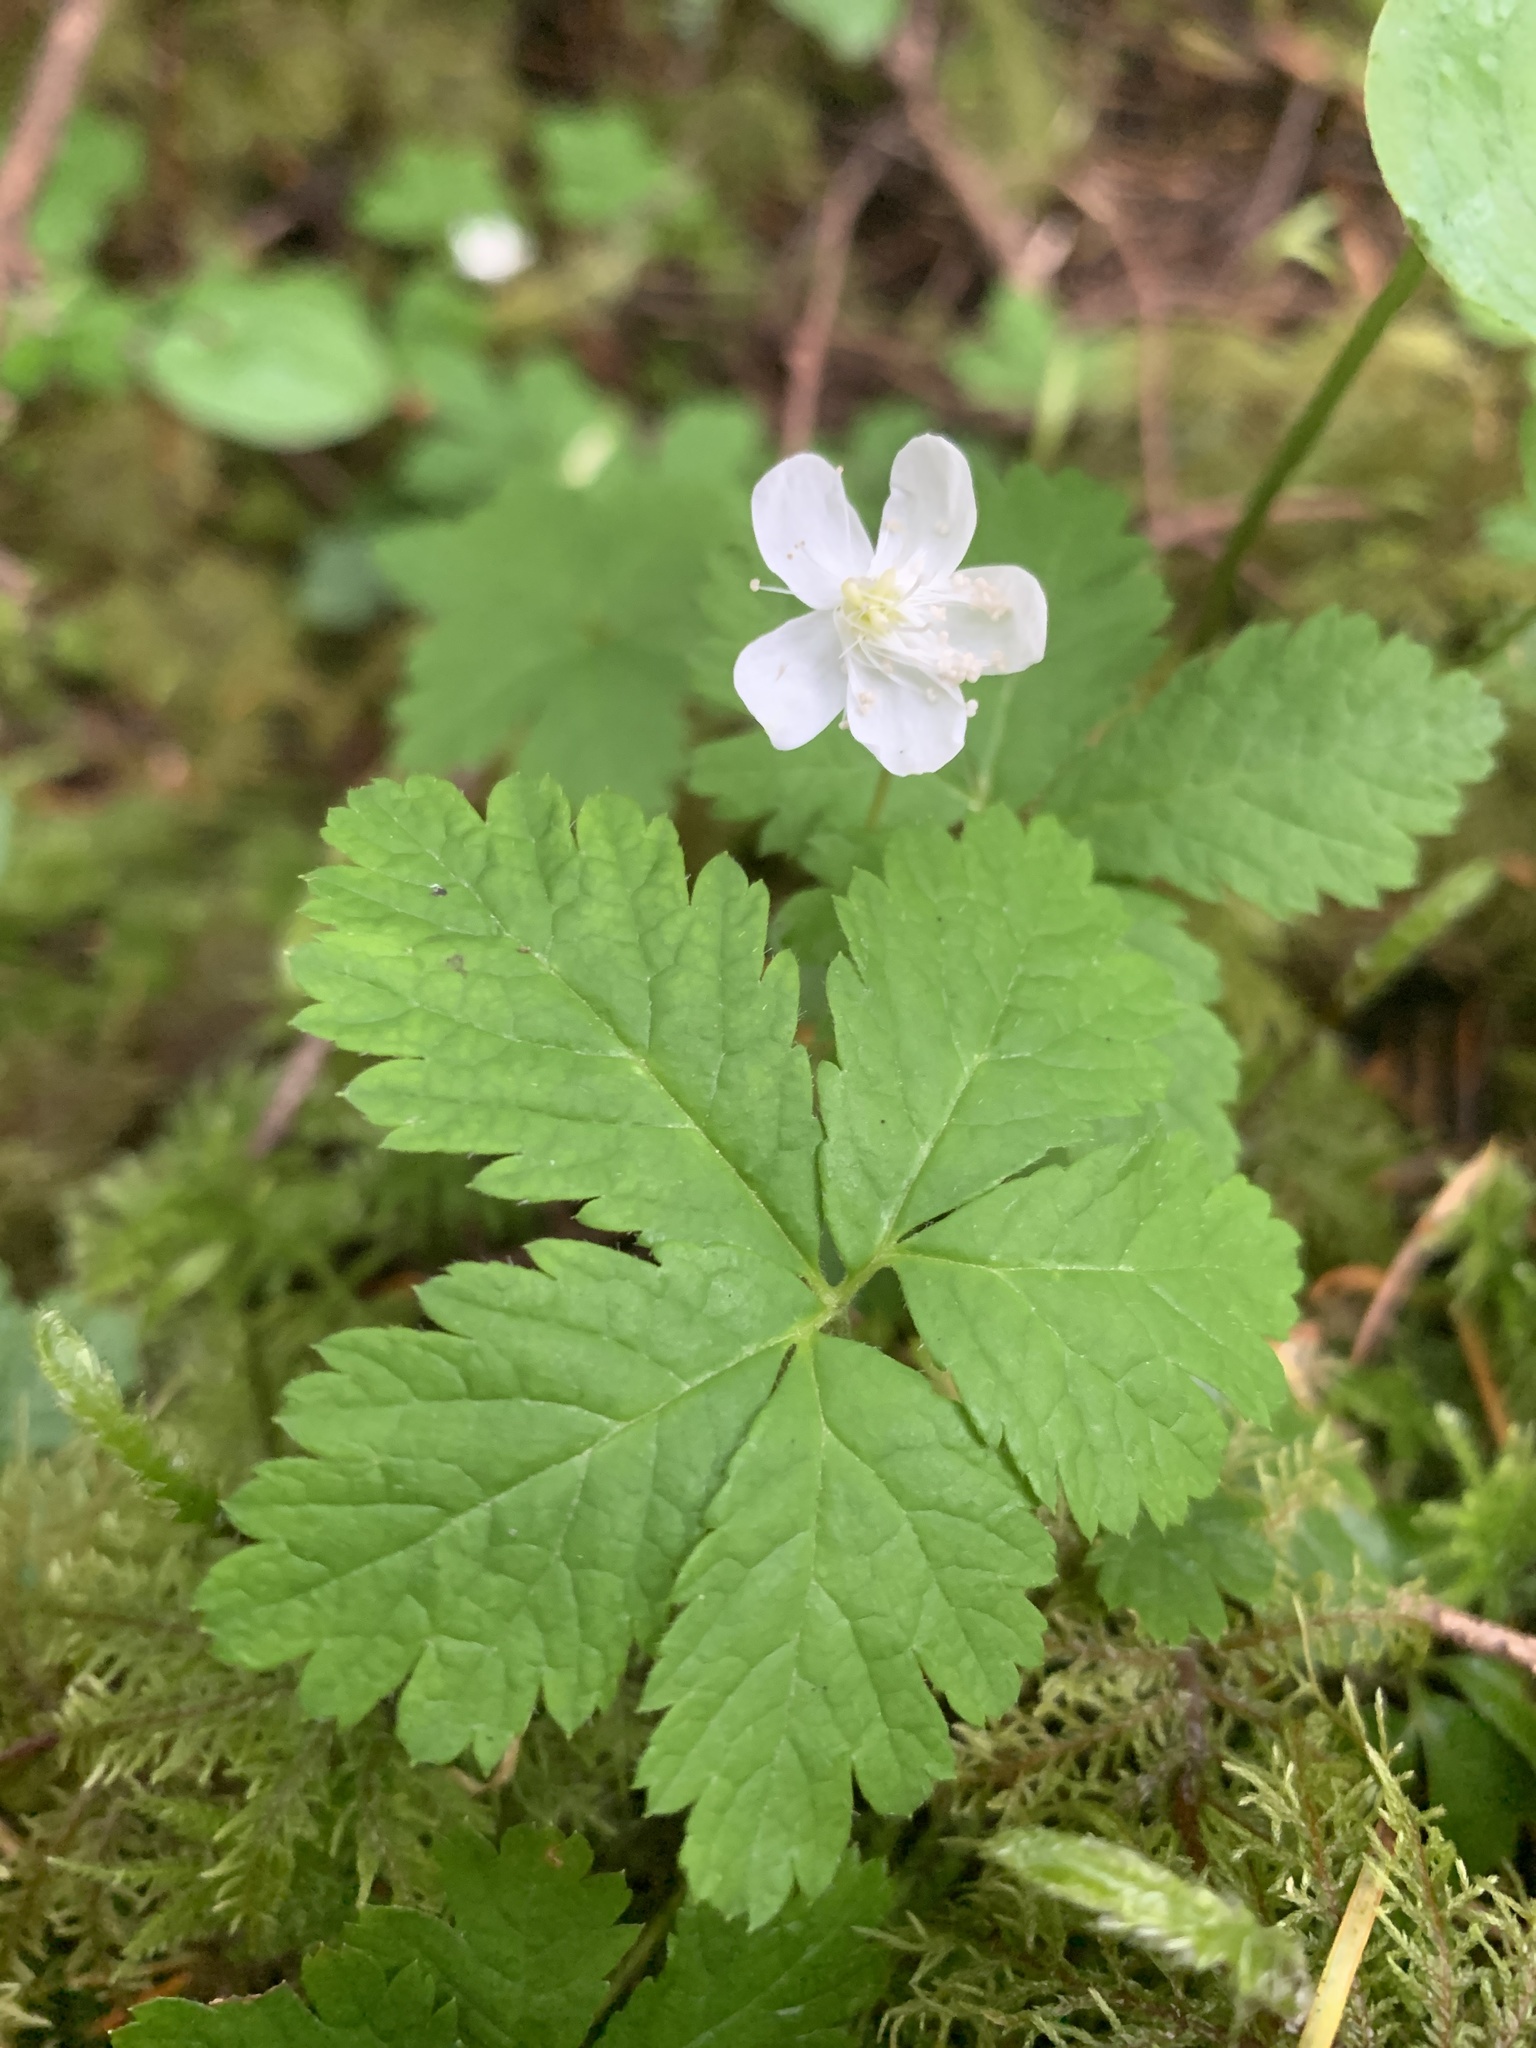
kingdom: Plantae
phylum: Tracheophyta
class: Magnoliopsida
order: Rosales
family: Rosaceae
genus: Rubus
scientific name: Rubus pedatus
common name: Creeping raspberry
